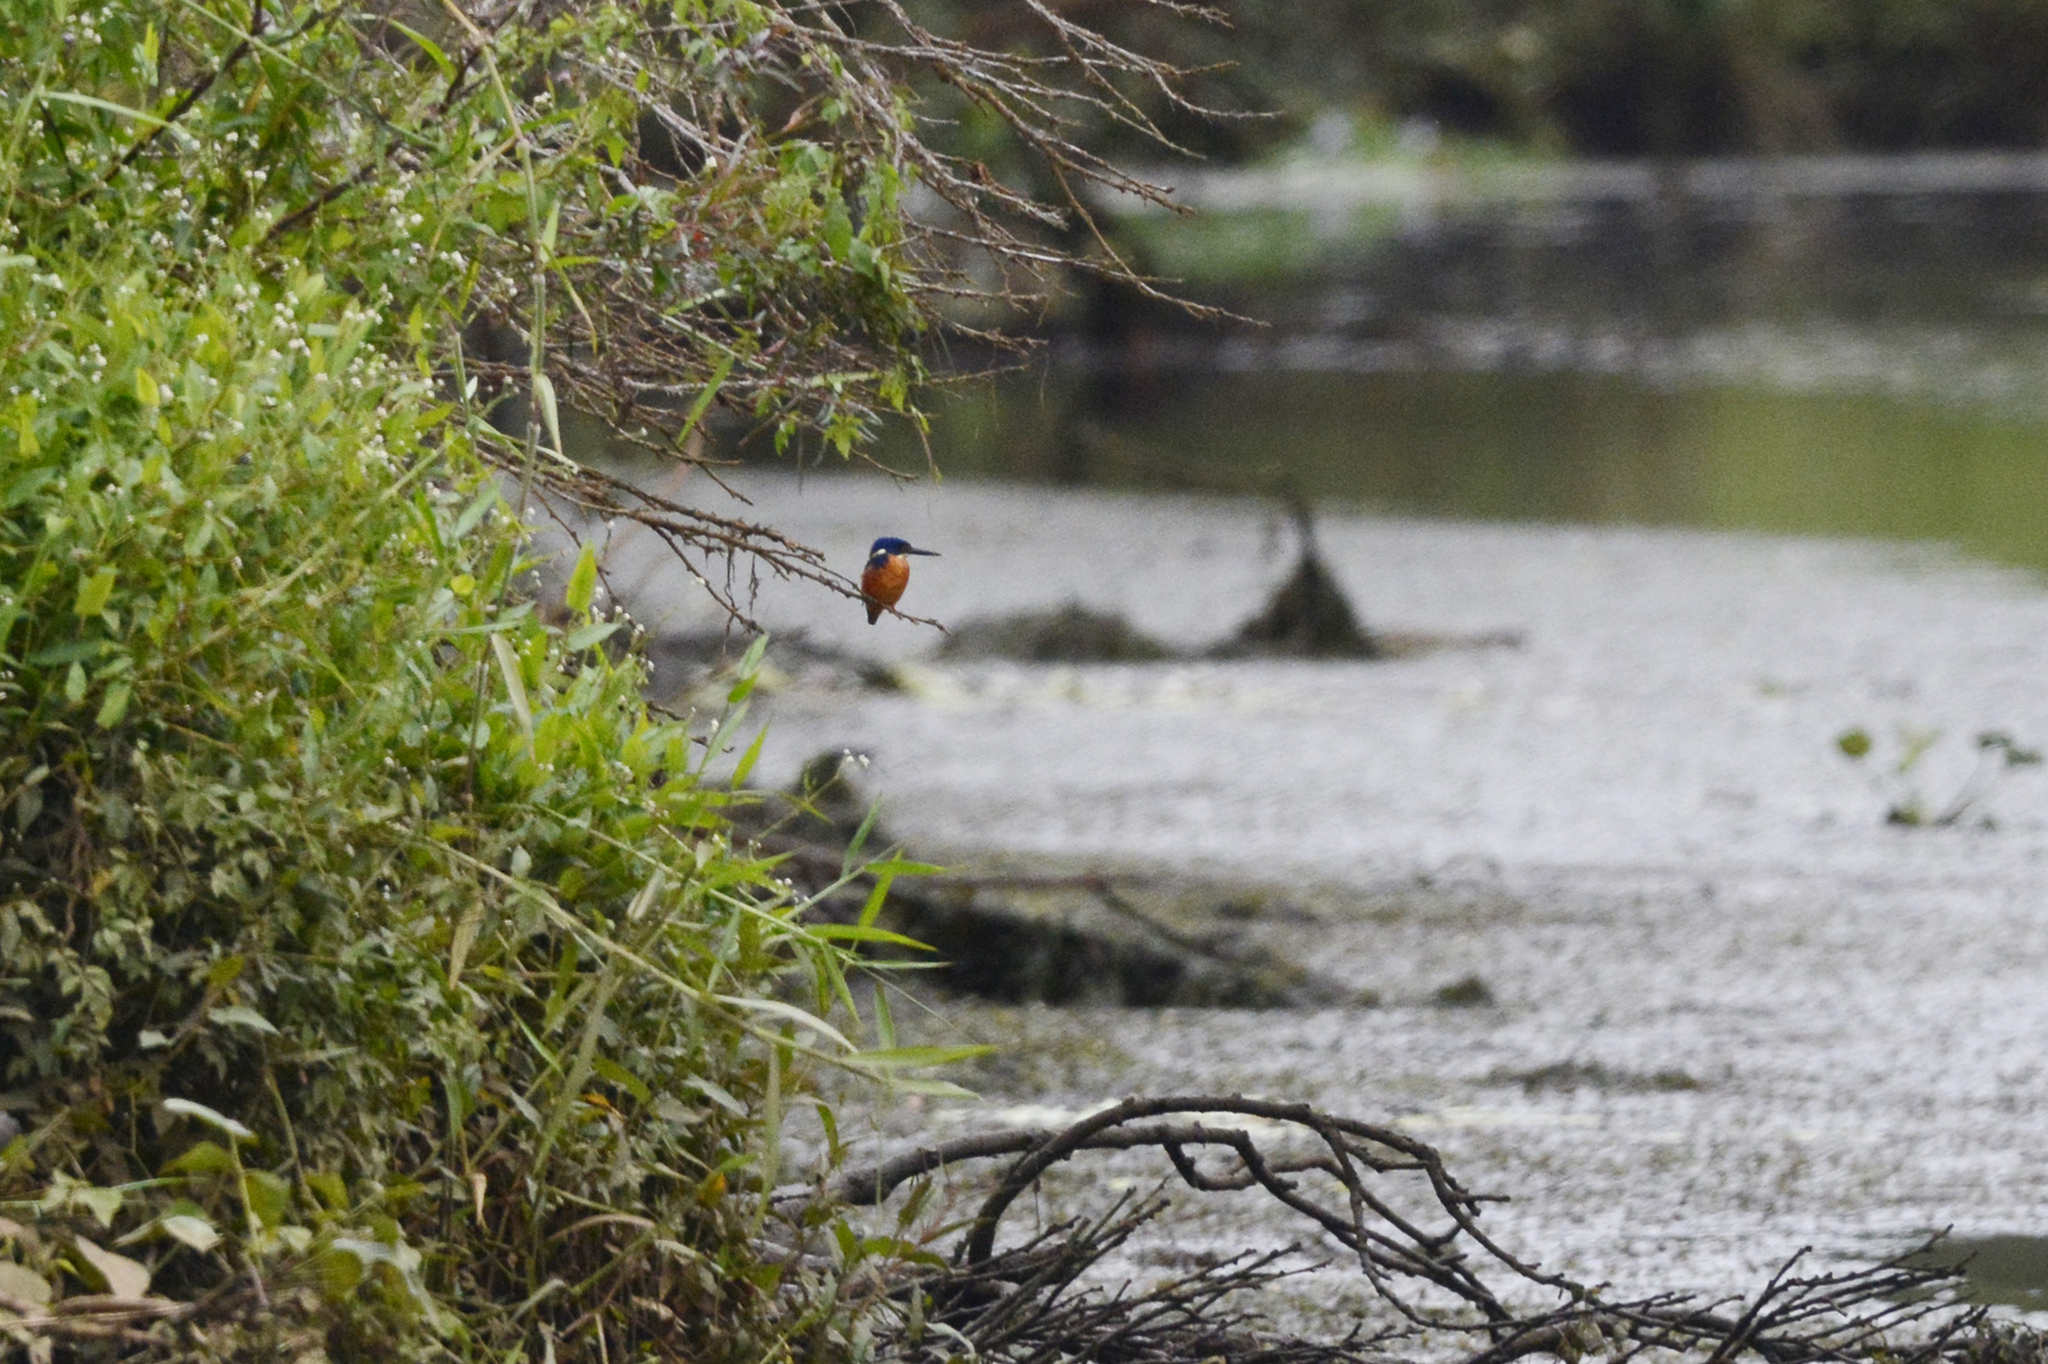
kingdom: Animalia
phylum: Chordata
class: Aves
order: Coraciiformes
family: Alcedinidae
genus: Ceyx
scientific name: Ceyx azureus
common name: Azure kingfisher
